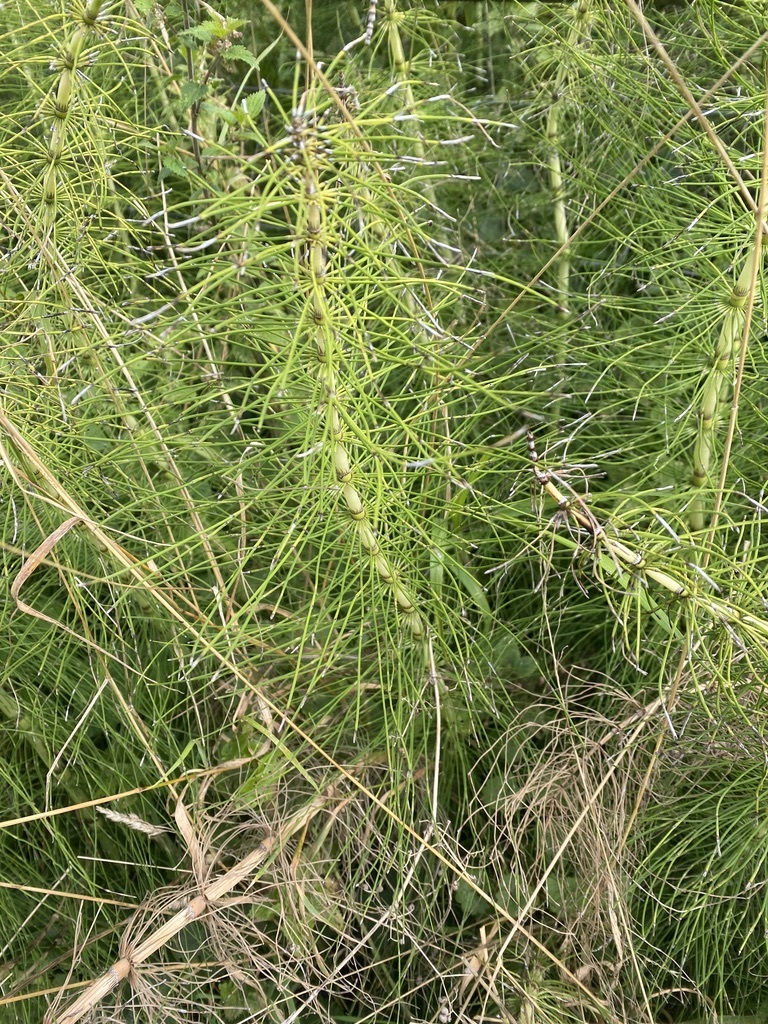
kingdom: Plantae
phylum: Tracheophyta
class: Polypodiopsida
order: Equisetales
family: Equisetaceae
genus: Equisetum
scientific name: Equisetum telmateia
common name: Great horsetail
